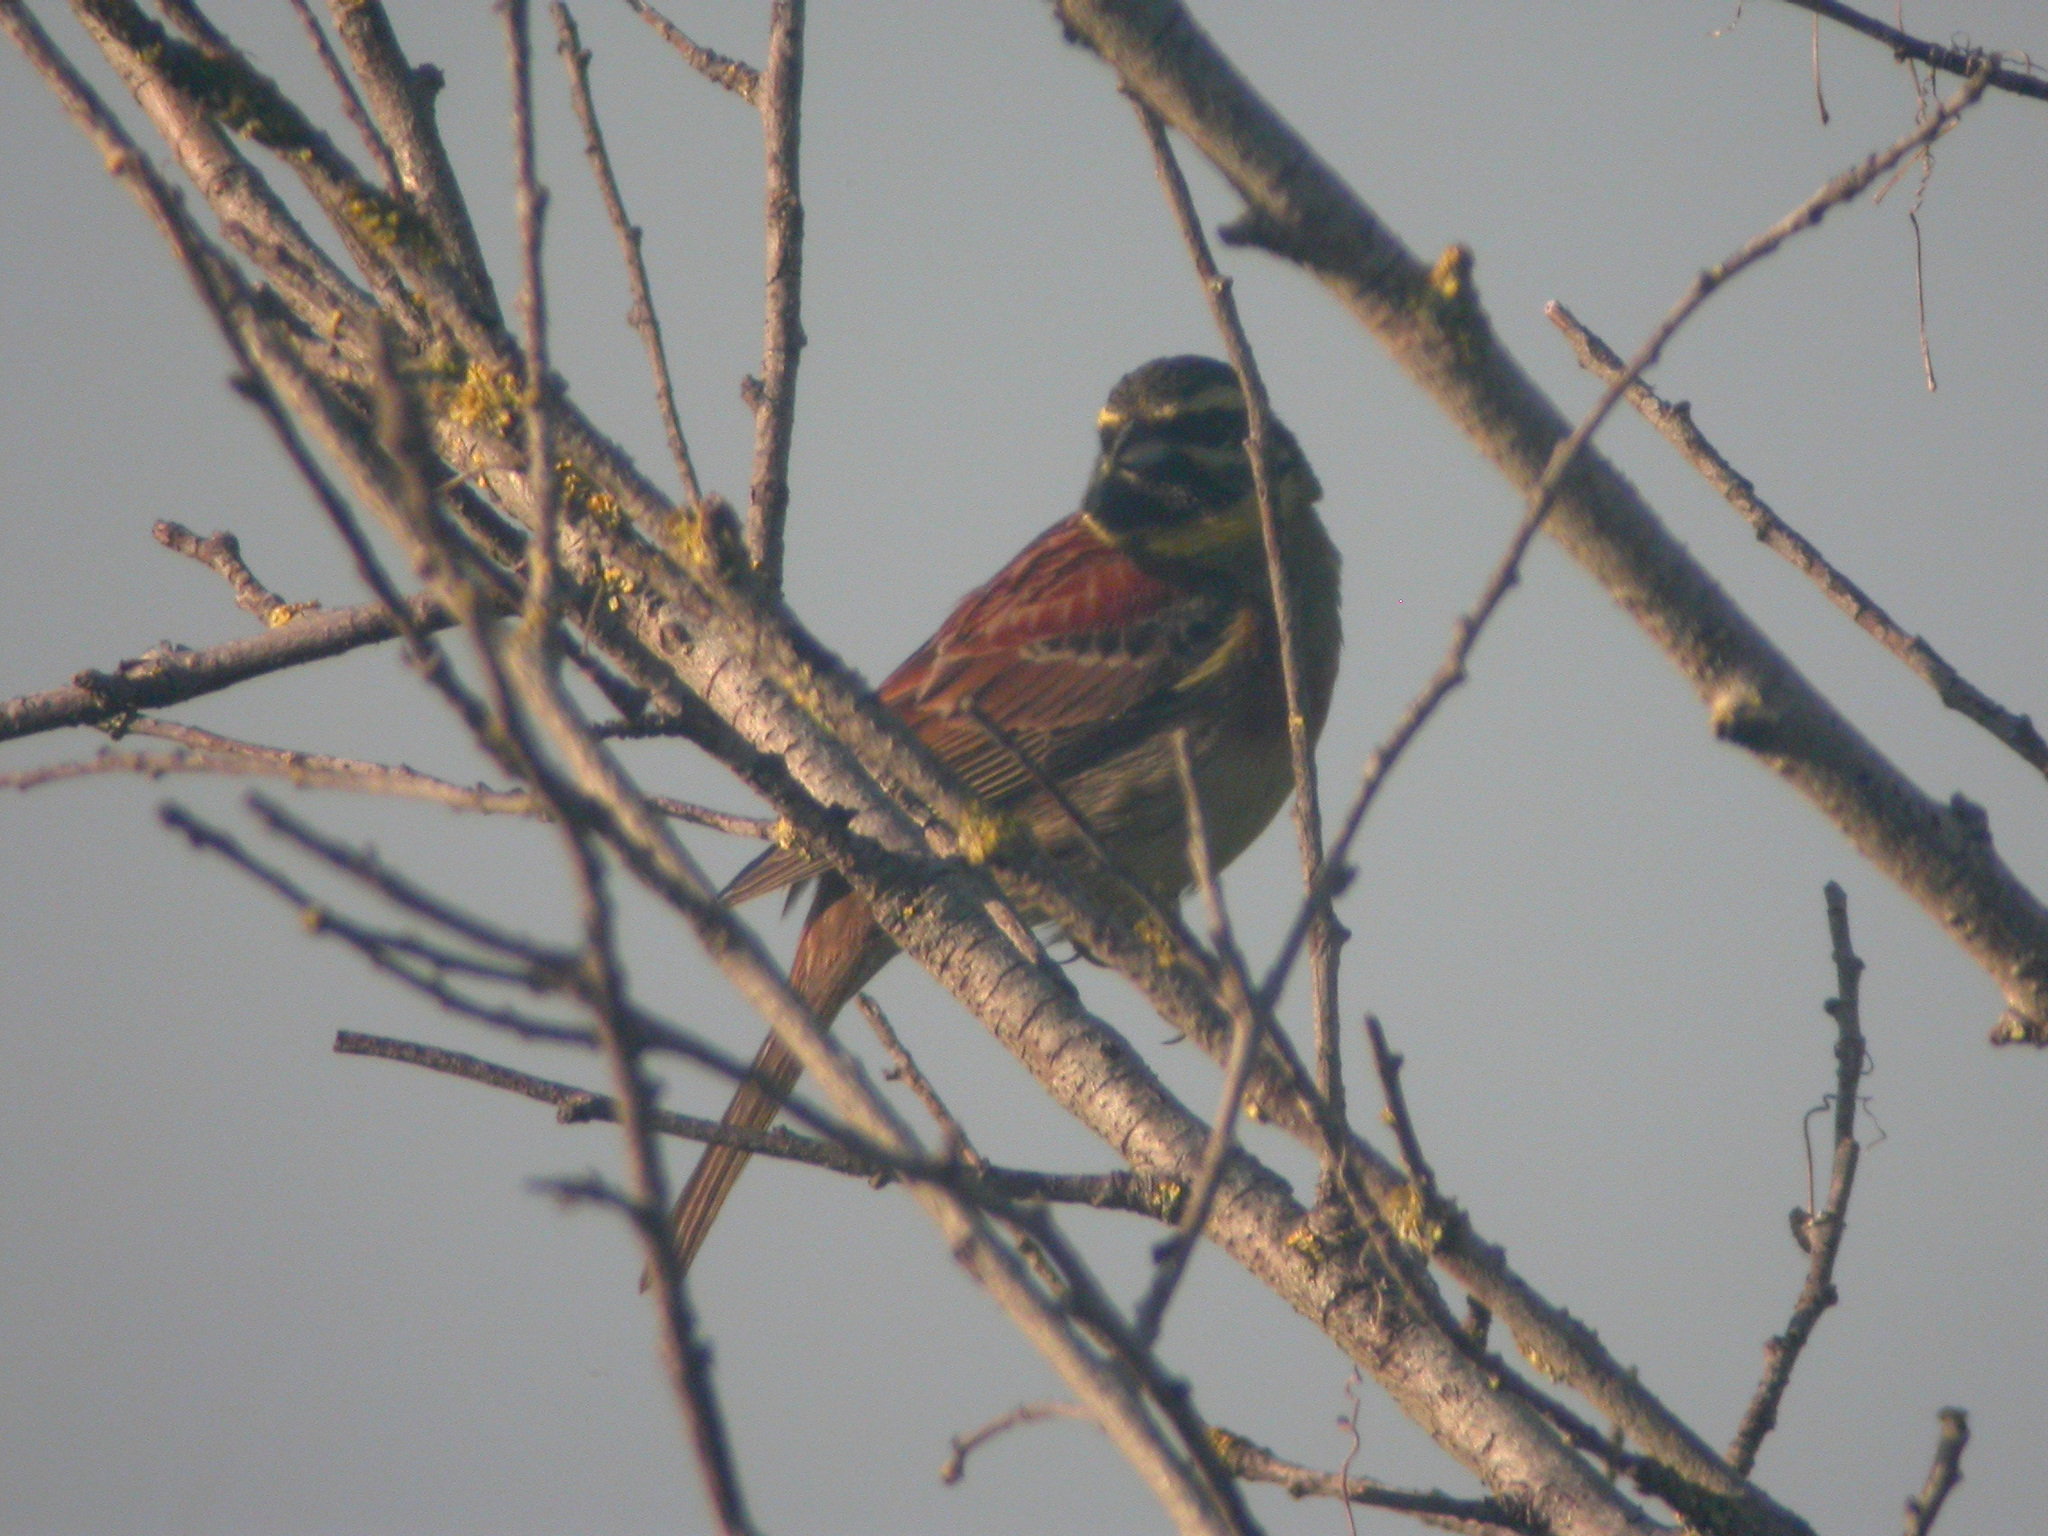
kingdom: Animalia
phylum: Chordata
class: Aves
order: Passeriformes
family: Emberizidae
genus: Emberiza
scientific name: Emberiza cirlus
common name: Cirl bunting
